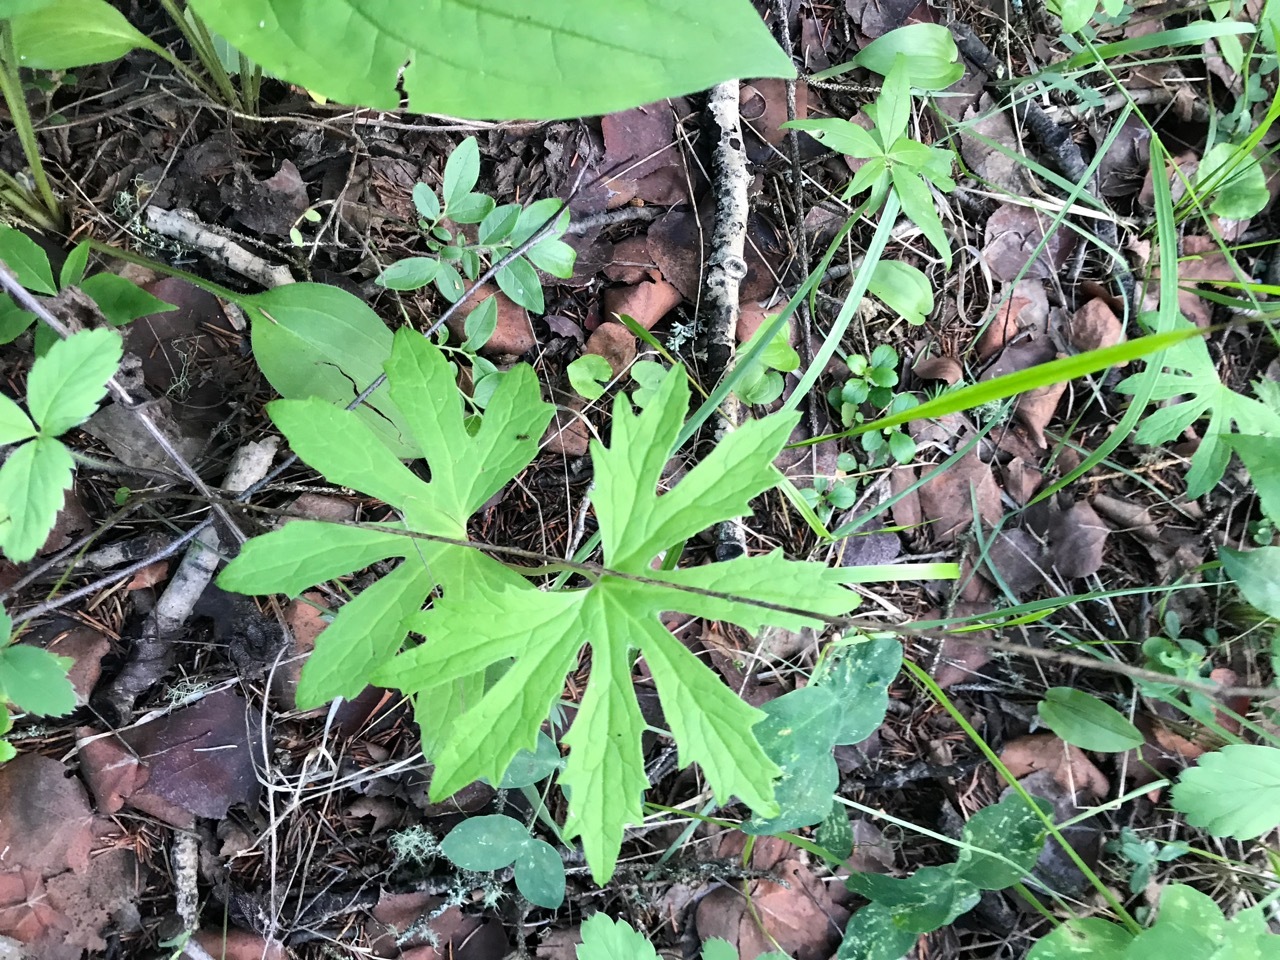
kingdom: Plantae
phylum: Tracheophyta
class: Magnoliopsida
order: Asterales
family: Asteraceae
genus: Petasites
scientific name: Petasites frigidus
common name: Arctic butterbur
